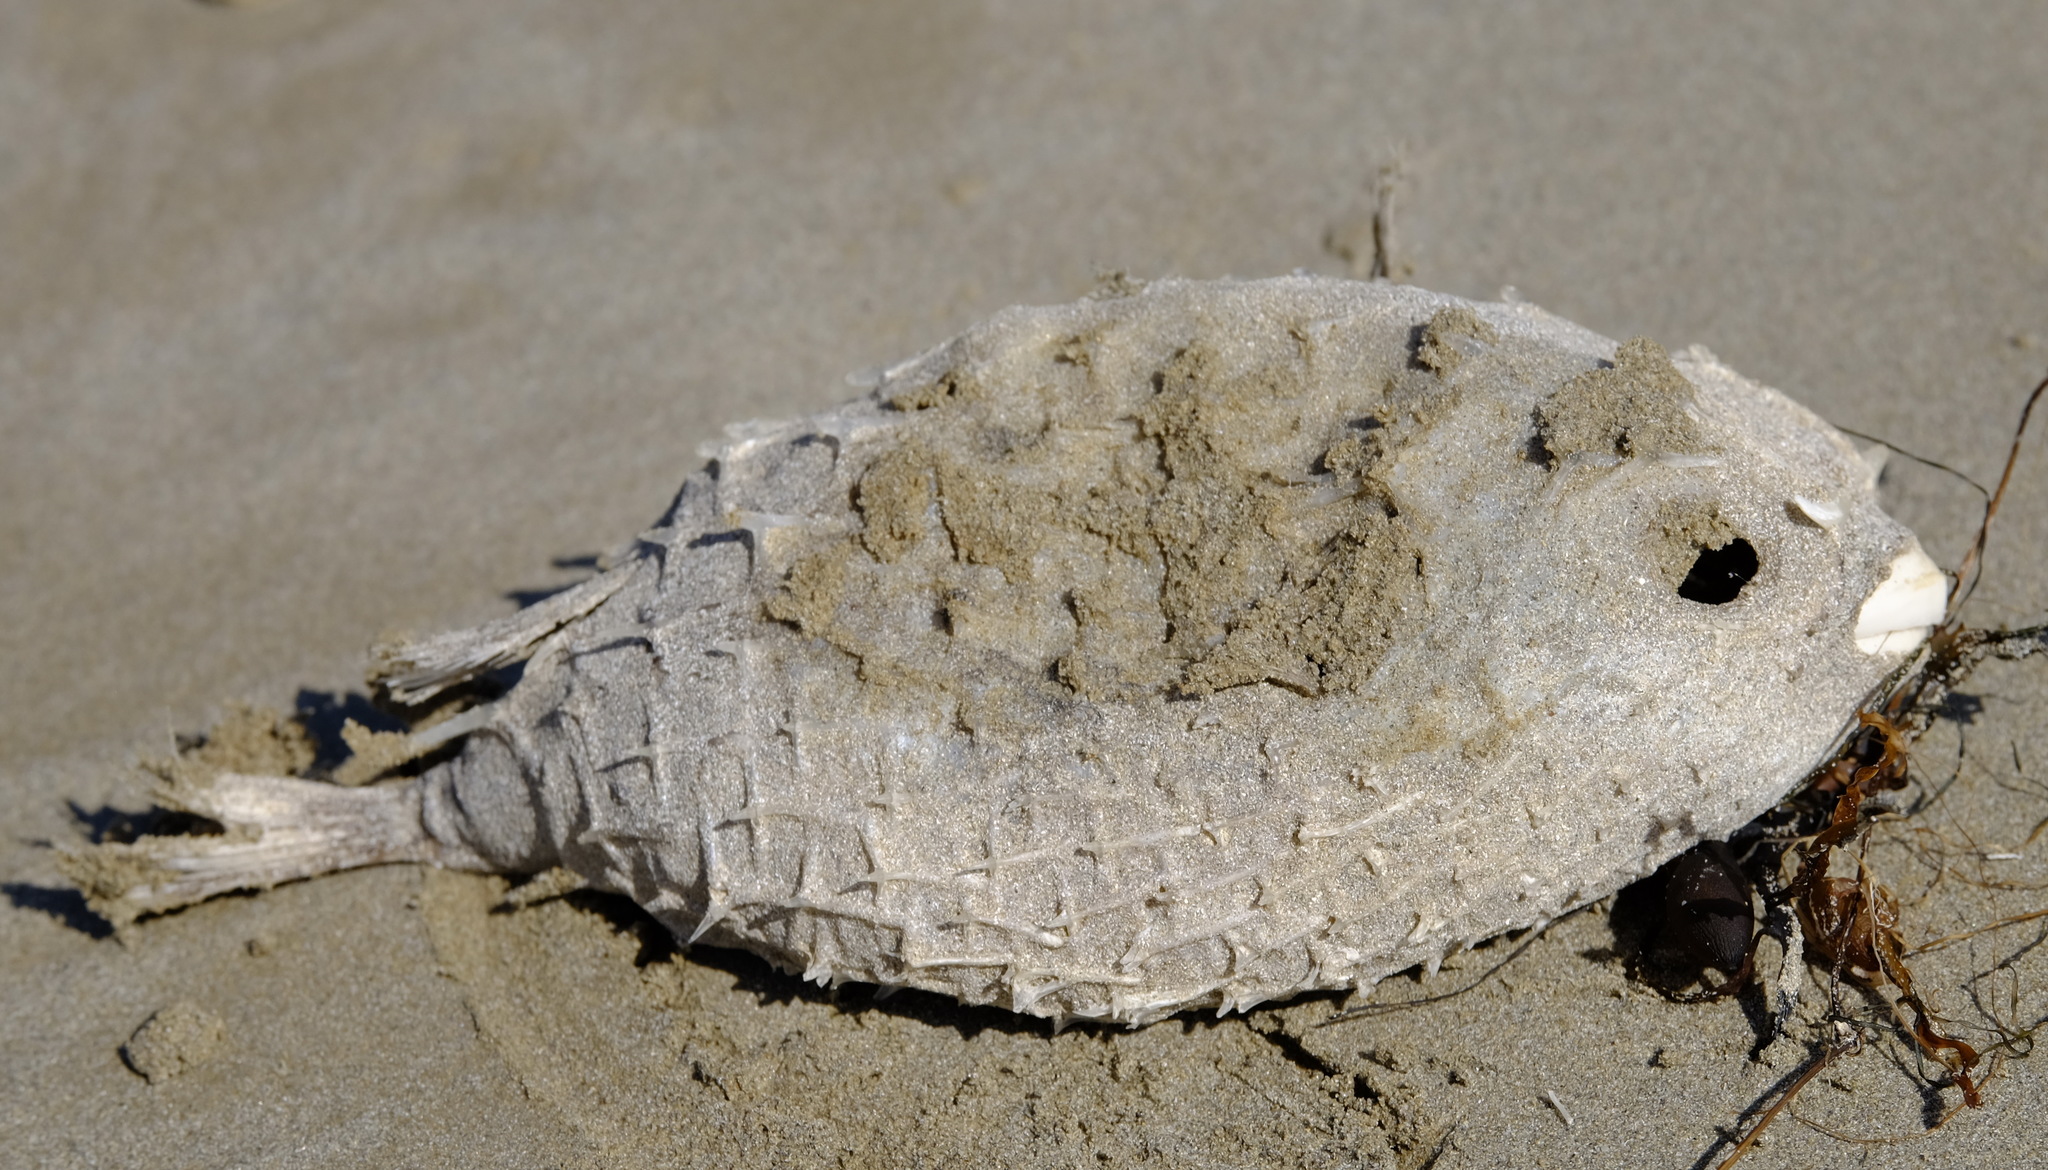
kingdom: Animalia
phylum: Chordata
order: Tetraodontiformes
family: Diodontidae
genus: Allomycterus
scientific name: Allomycterus pilatus
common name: No common name
